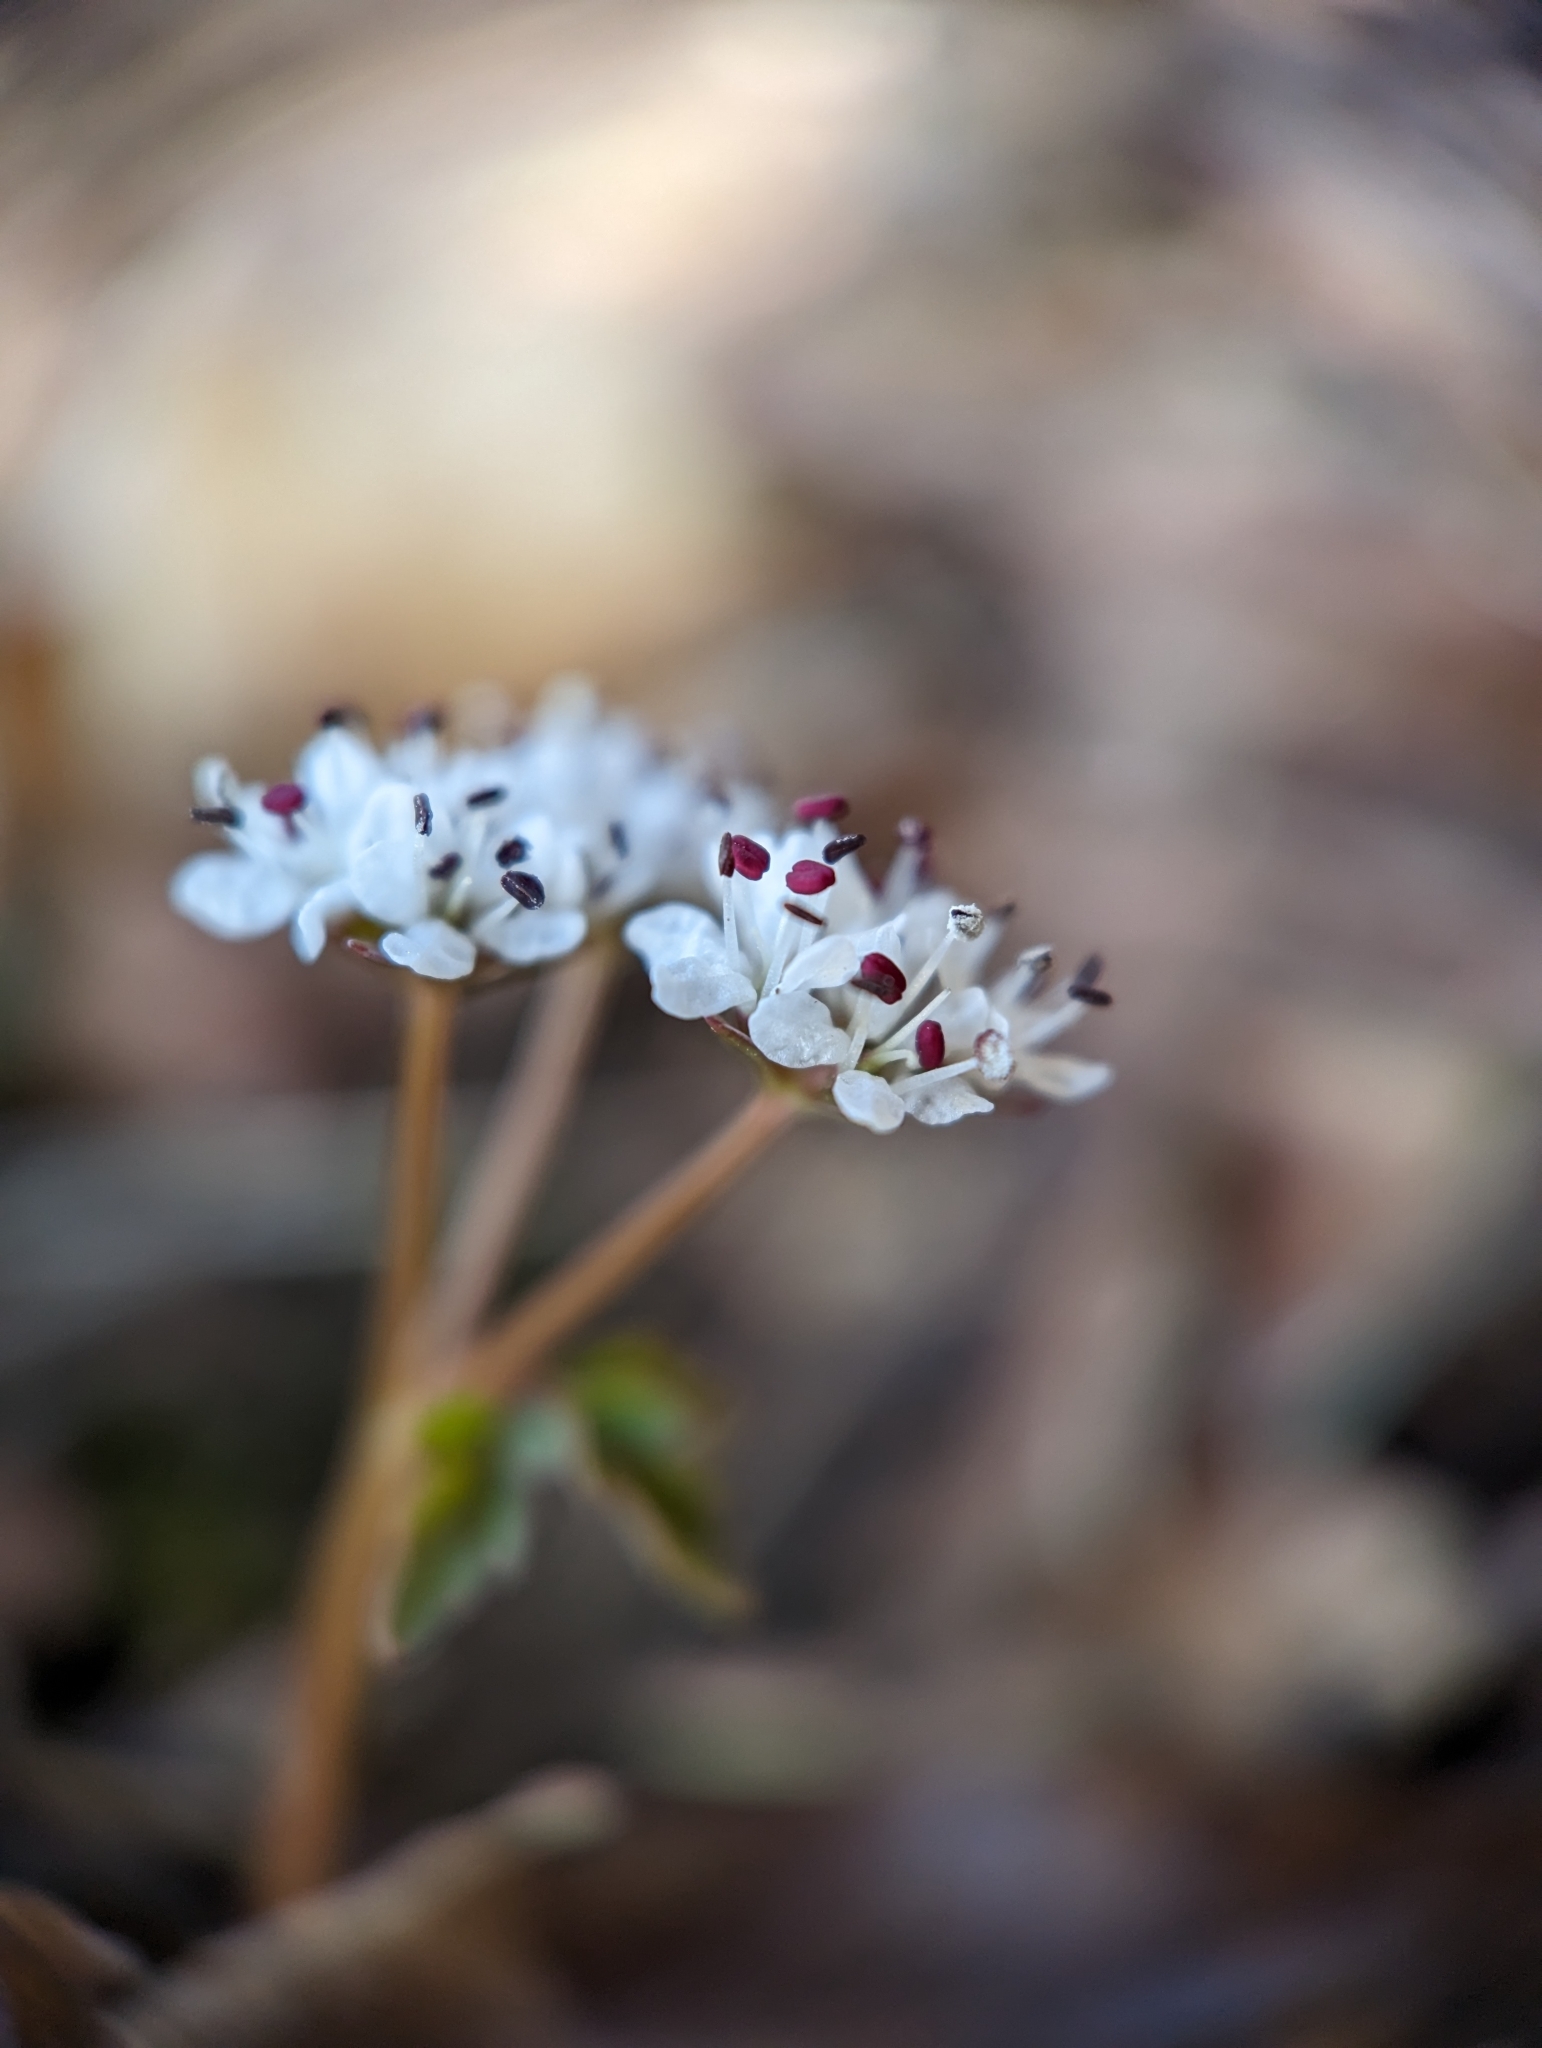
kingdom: Plantae
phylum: Tracheophyta
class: Magnoliopsida
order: Apiales
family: Apiaceae
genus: Erigenia
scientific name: Erigenia bulbosa
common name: Pepper-and-salt
